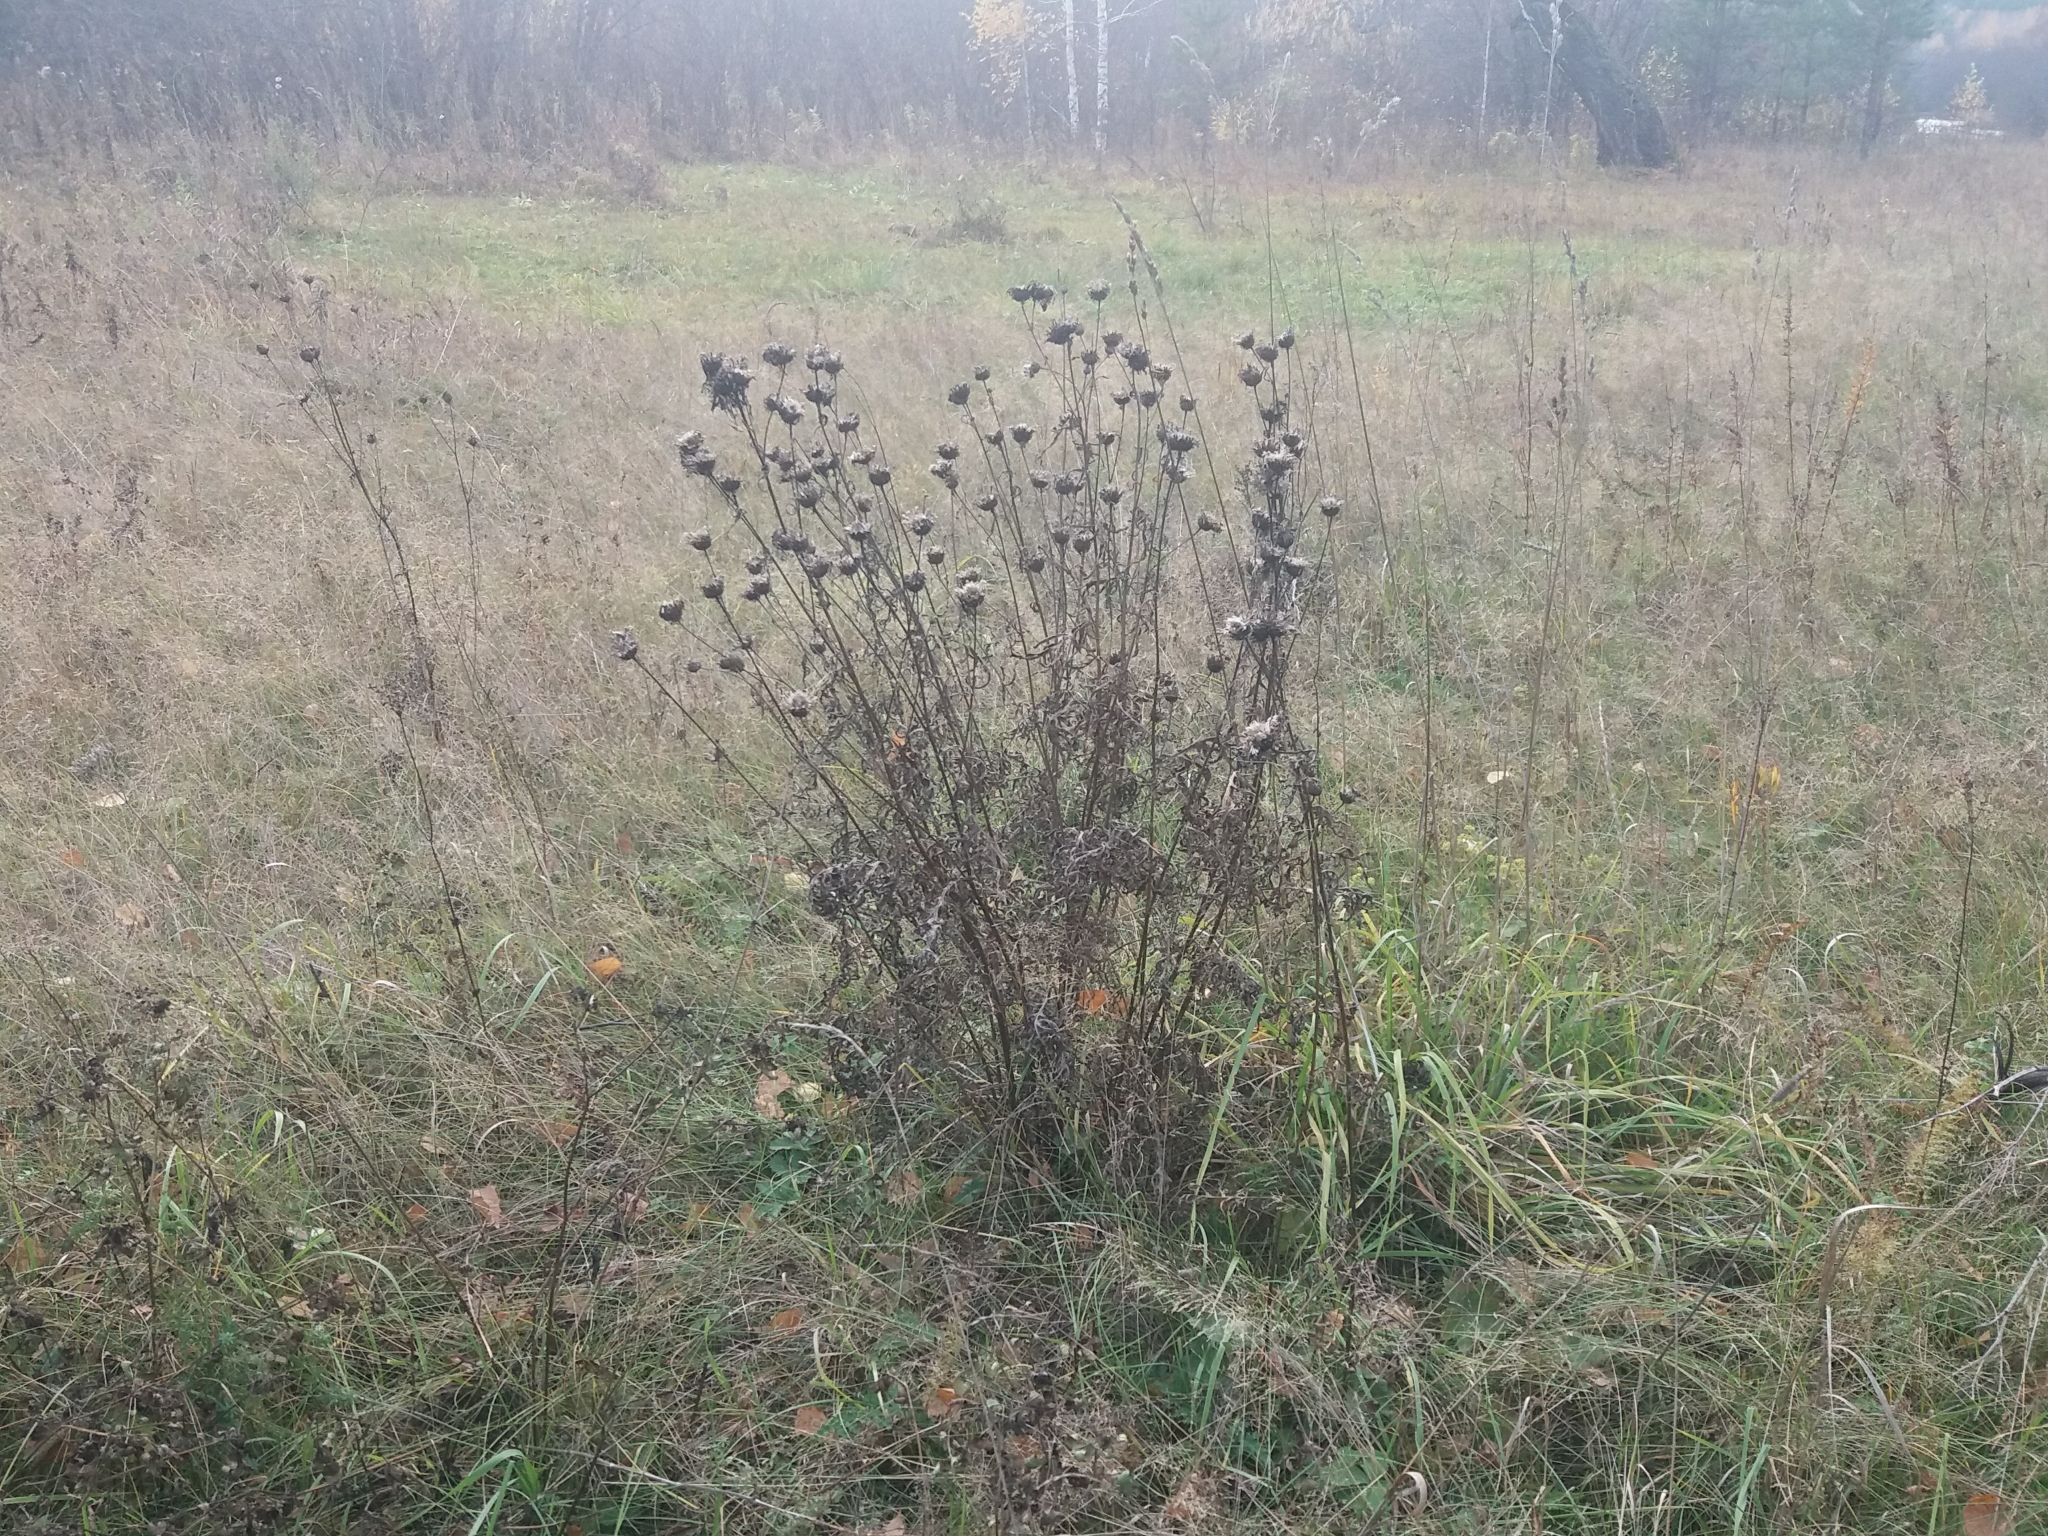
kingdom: Plantae
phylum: Tracheophyta
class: Magnoliopsida
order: Asterales
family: Asteraceae
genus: Centaurea
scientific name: Centaurea scabiosa
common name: Greater knapweed
